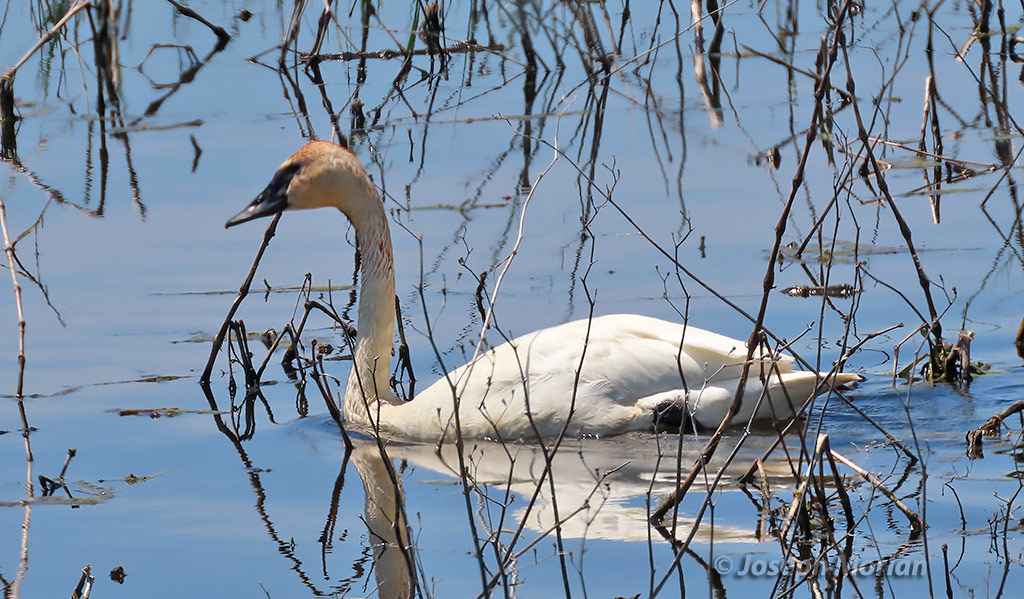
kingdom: Animalia
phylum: Chordata
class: Aves
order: Anseriformes
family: Anatidae
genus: Cygnus
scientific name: Cygnus buccinator
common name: Trumpeter swan
